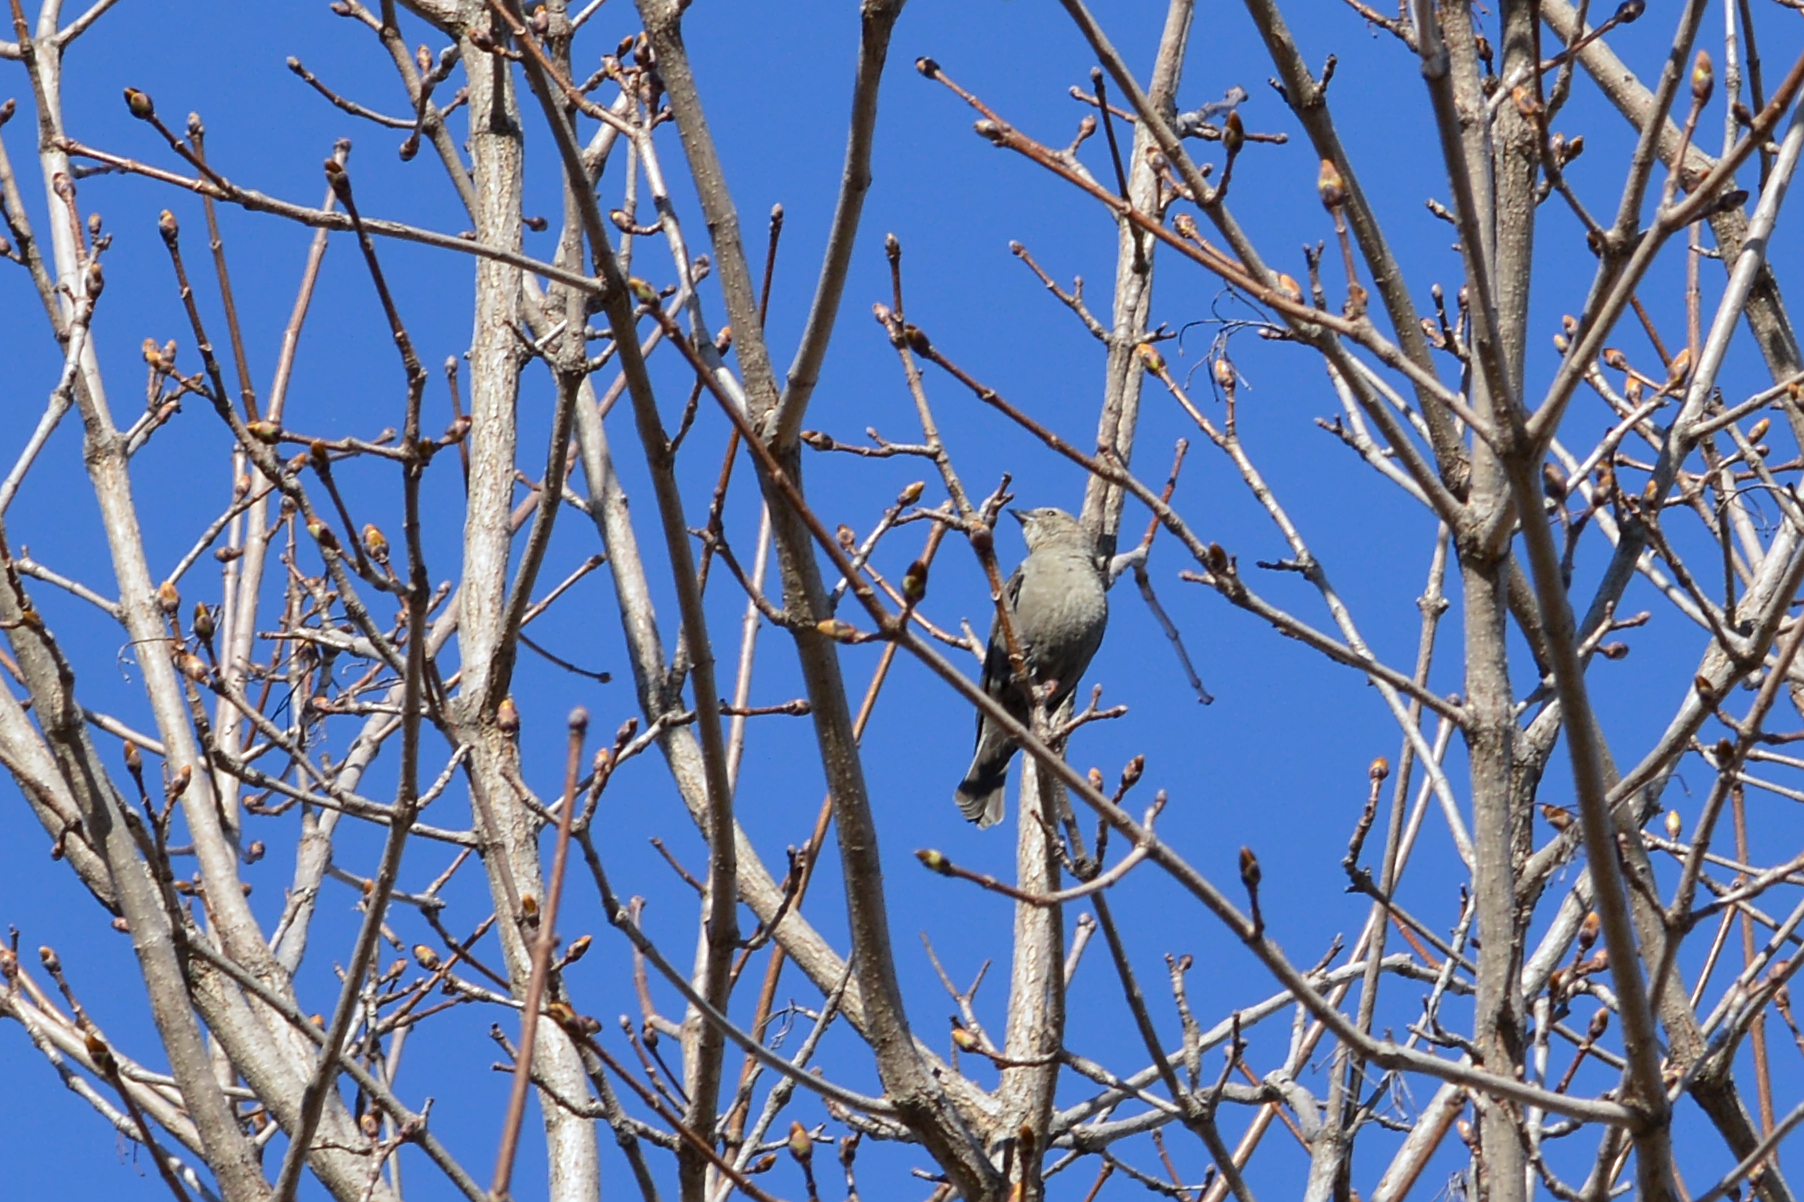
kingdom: Animalia
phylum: Chordata
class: Aves
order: Passeriformes
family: Icteridae
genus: Molothrus
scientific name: Molothrus ater
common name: Brown-headed cowbird
